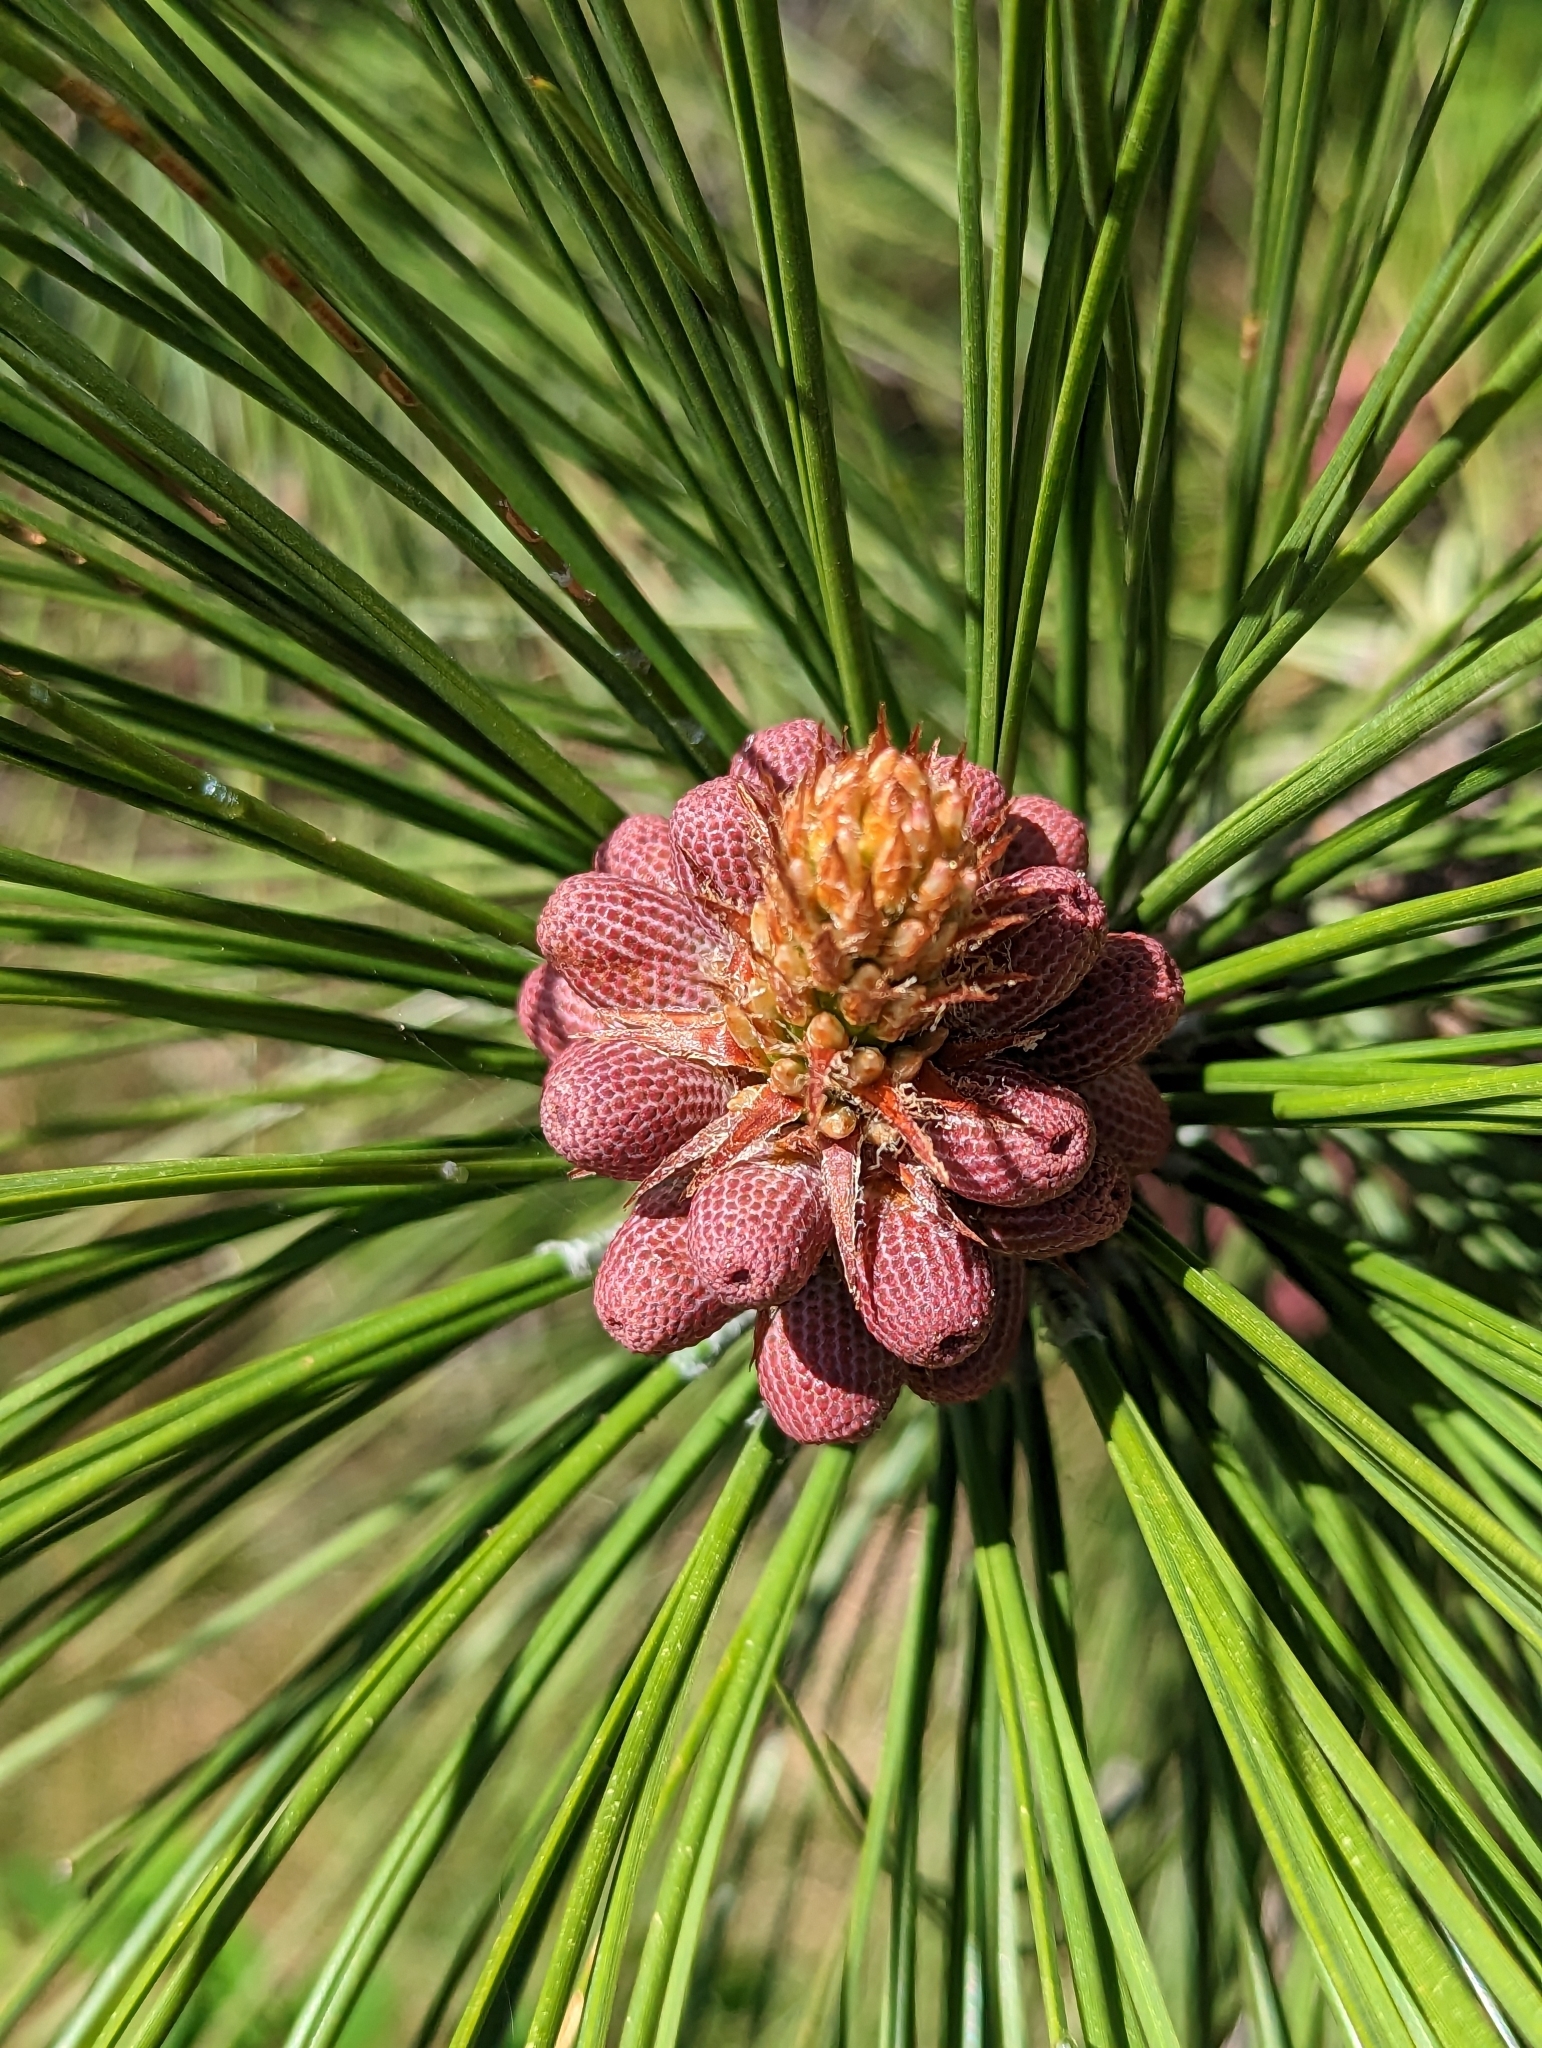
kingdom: Plantae
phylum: Tracheophyta
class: Pinopsida
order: Pinales
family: Pinaceae
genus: Pinus
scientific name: Pinus ponderosa
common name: Western yellow-pine
